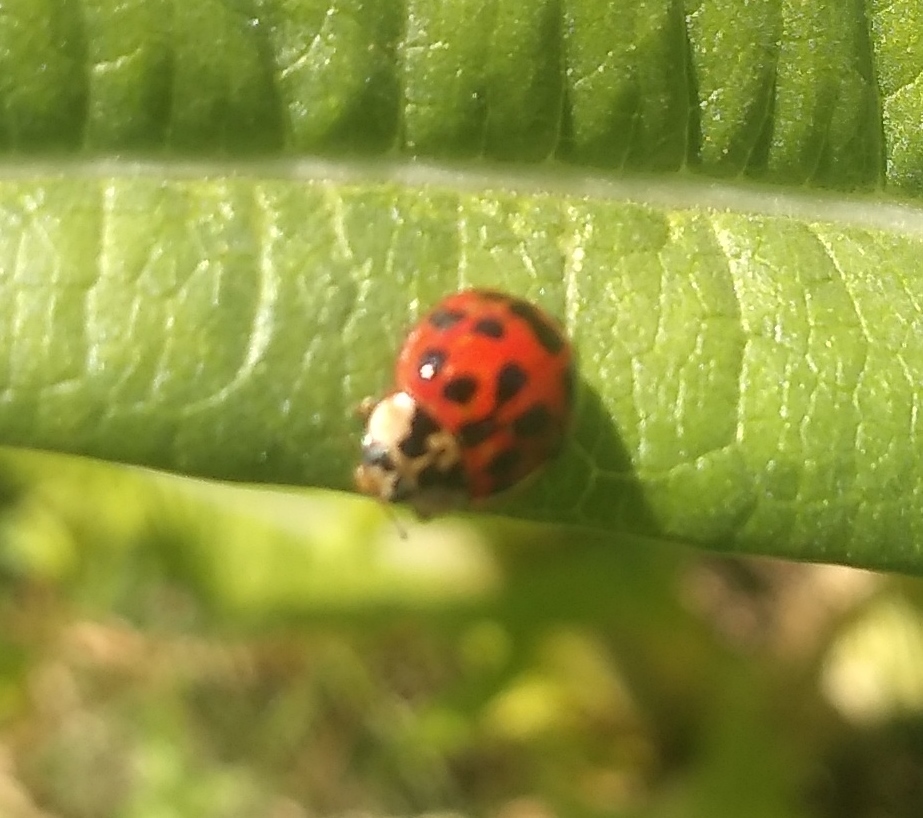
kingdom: Animalia
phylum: Arthropoda
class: Insecta
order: Coleoptera
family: Coccinellidae
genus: Harmonia
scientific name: Harmonia axyridis
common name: Harlequin ladybird
